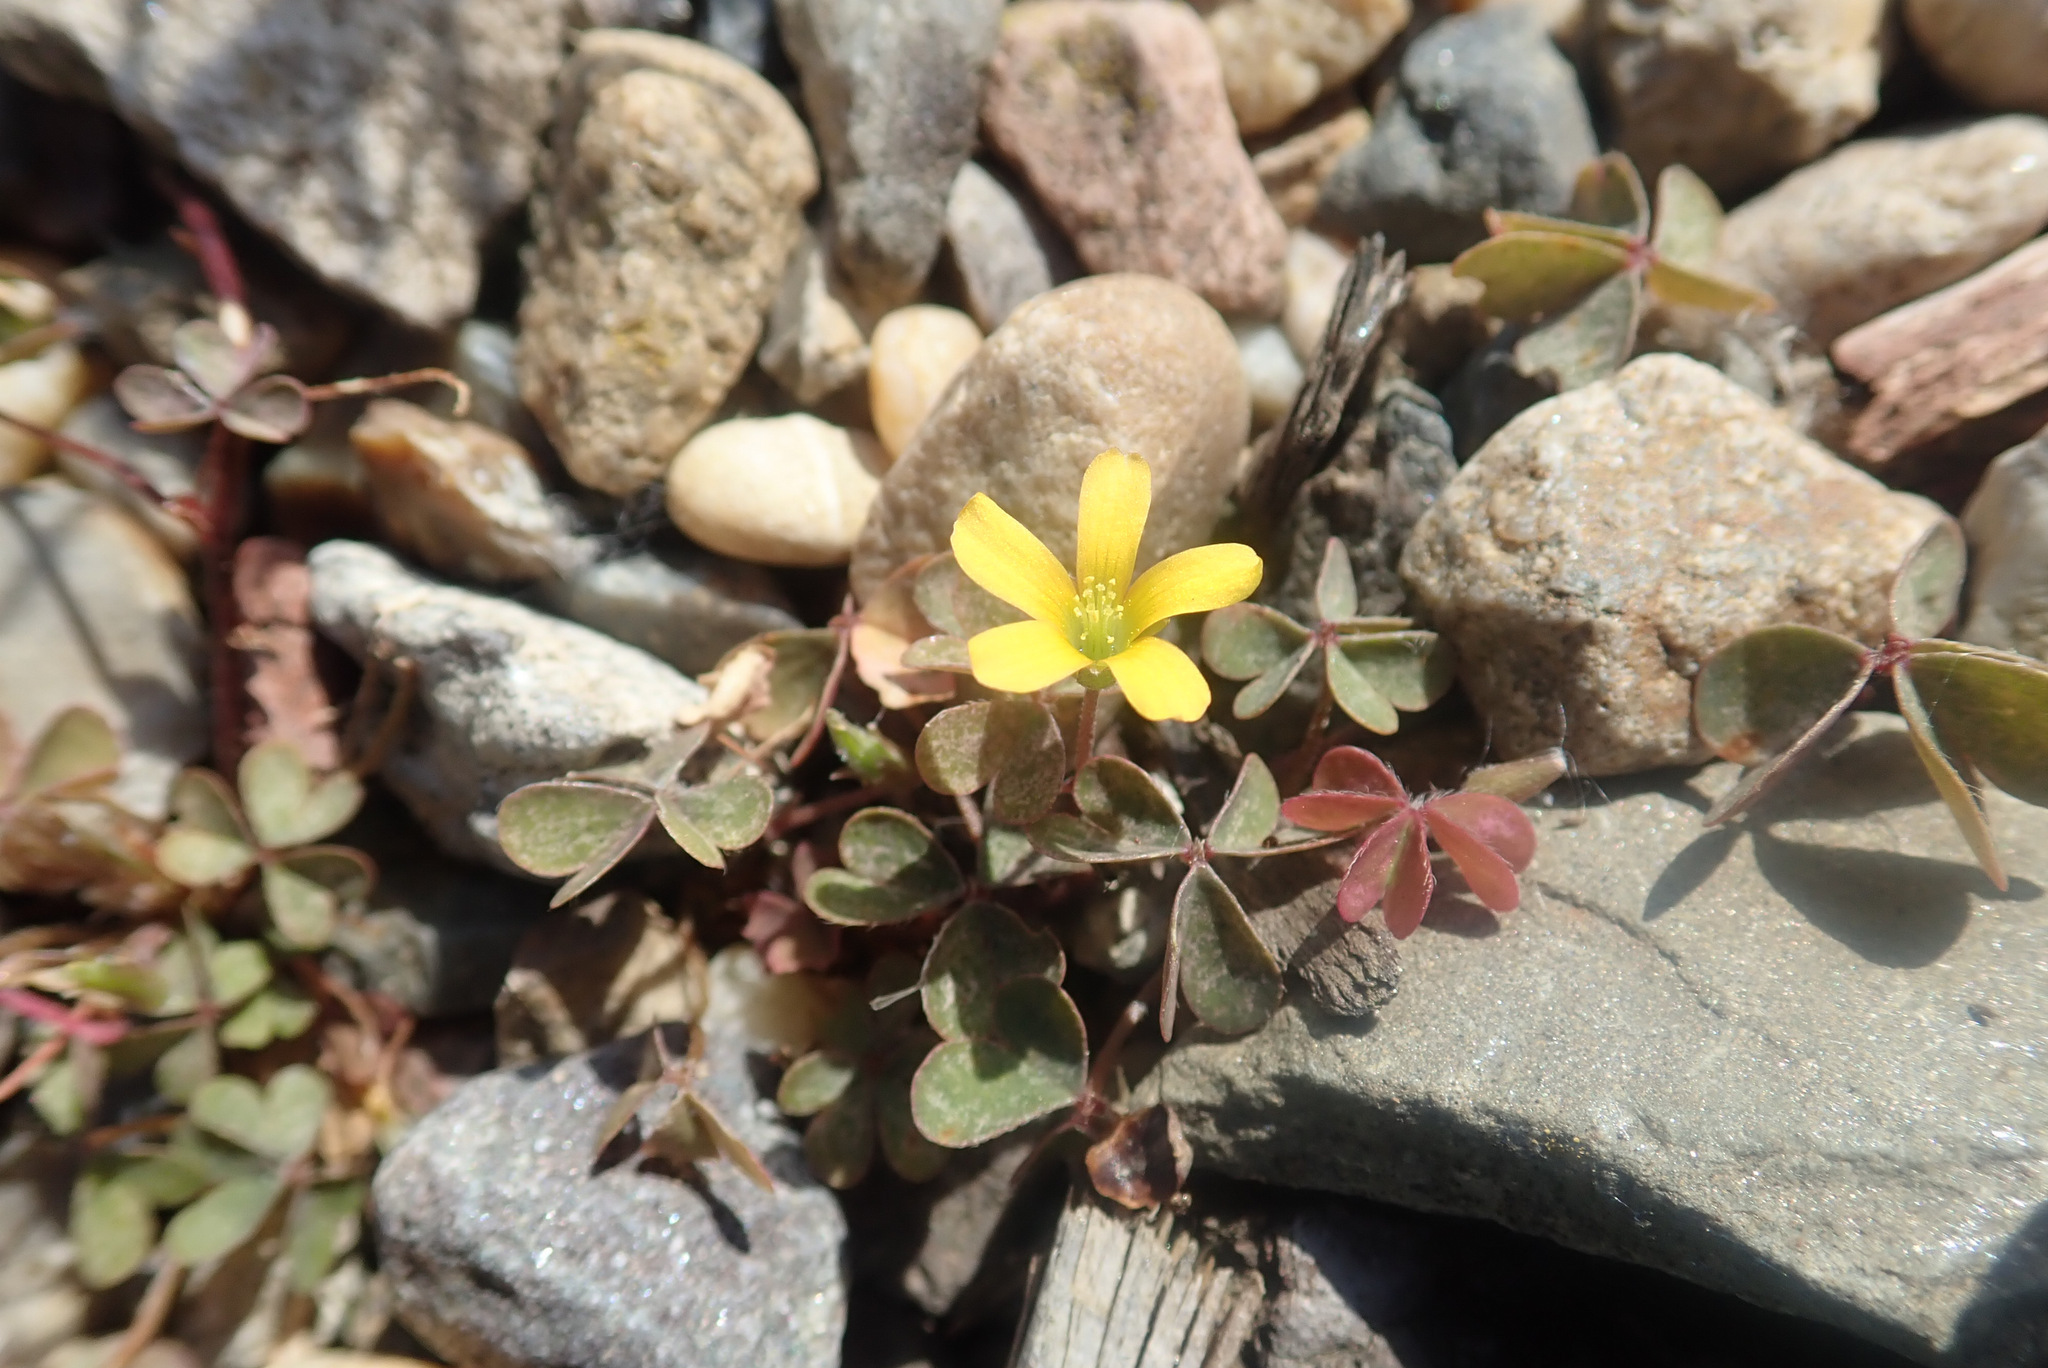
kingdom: Plantae
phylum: Tracheophyta
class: Magnoliopsida
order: Oxalidales
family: Oxalidaceae
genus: Oxalis
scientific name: Oxalis corniculata
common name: Procumbent yellow-sorrel
